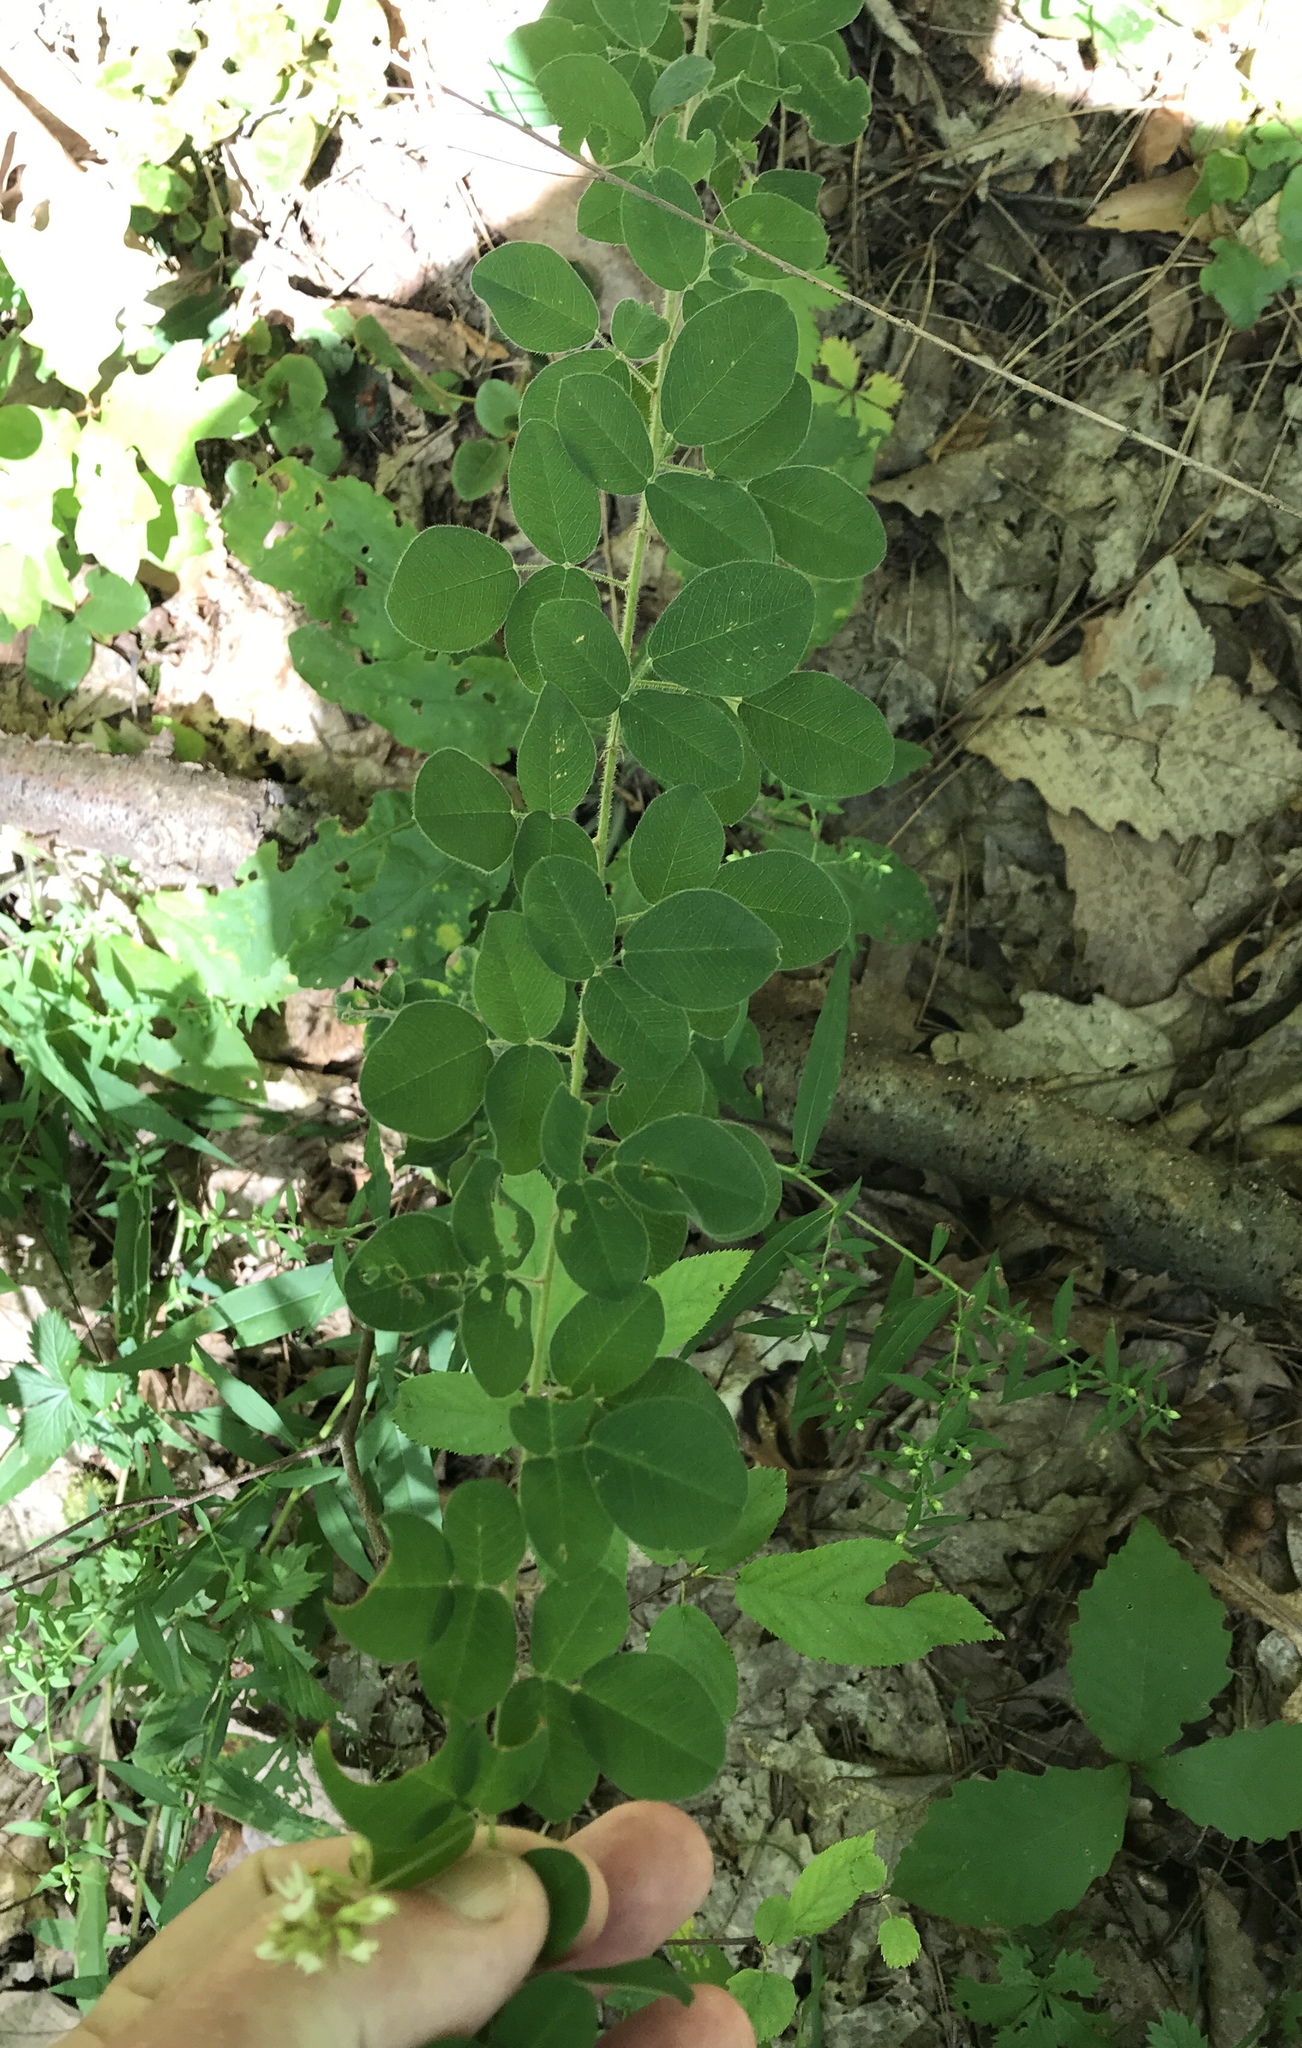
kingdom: Plantae
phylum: Tracheophyta
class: Magnoliopsida
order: Fabales
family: Fabaceae
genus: Lespedeza
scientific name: Lespedeza hirta
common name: Hairy lespedeza
